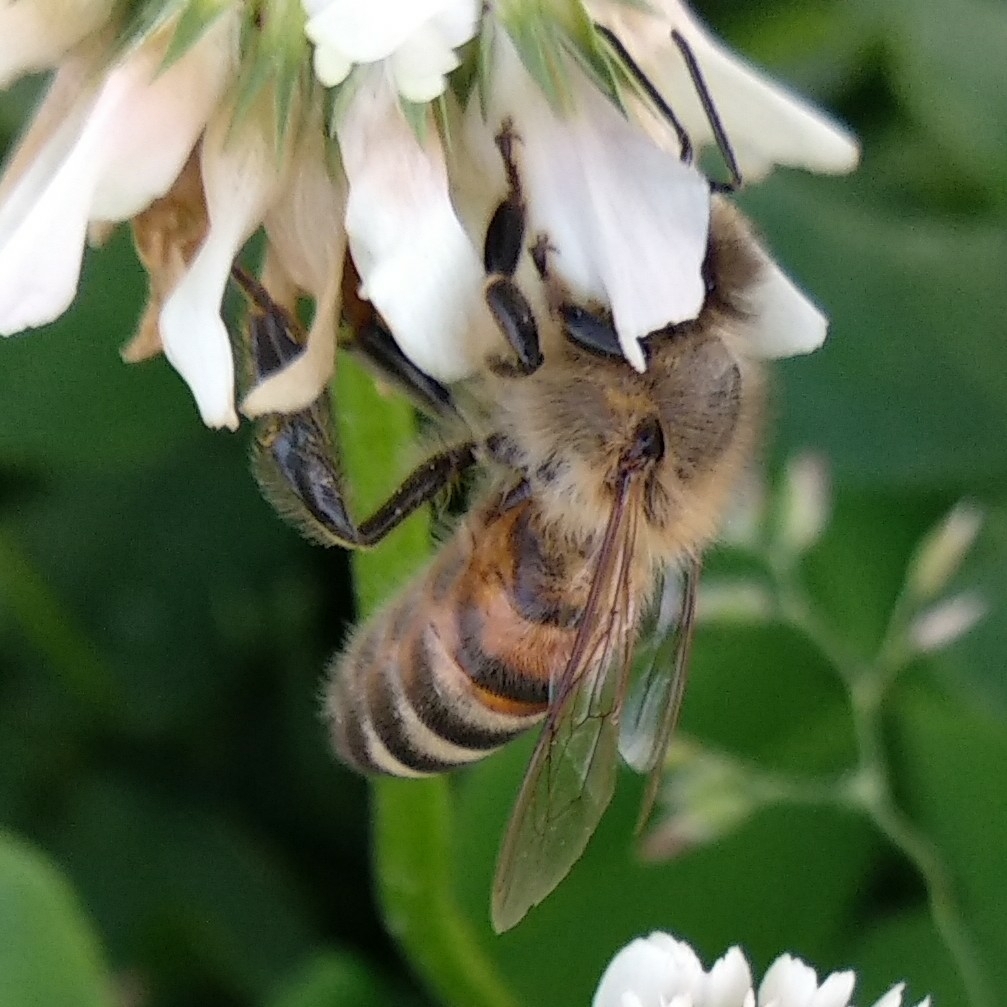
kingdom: Animalia
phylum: Arthropoda
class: Insecta
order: Hymenoptera
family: Apidae
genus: Apis
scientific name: Apis mellifera
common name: Honey bee
